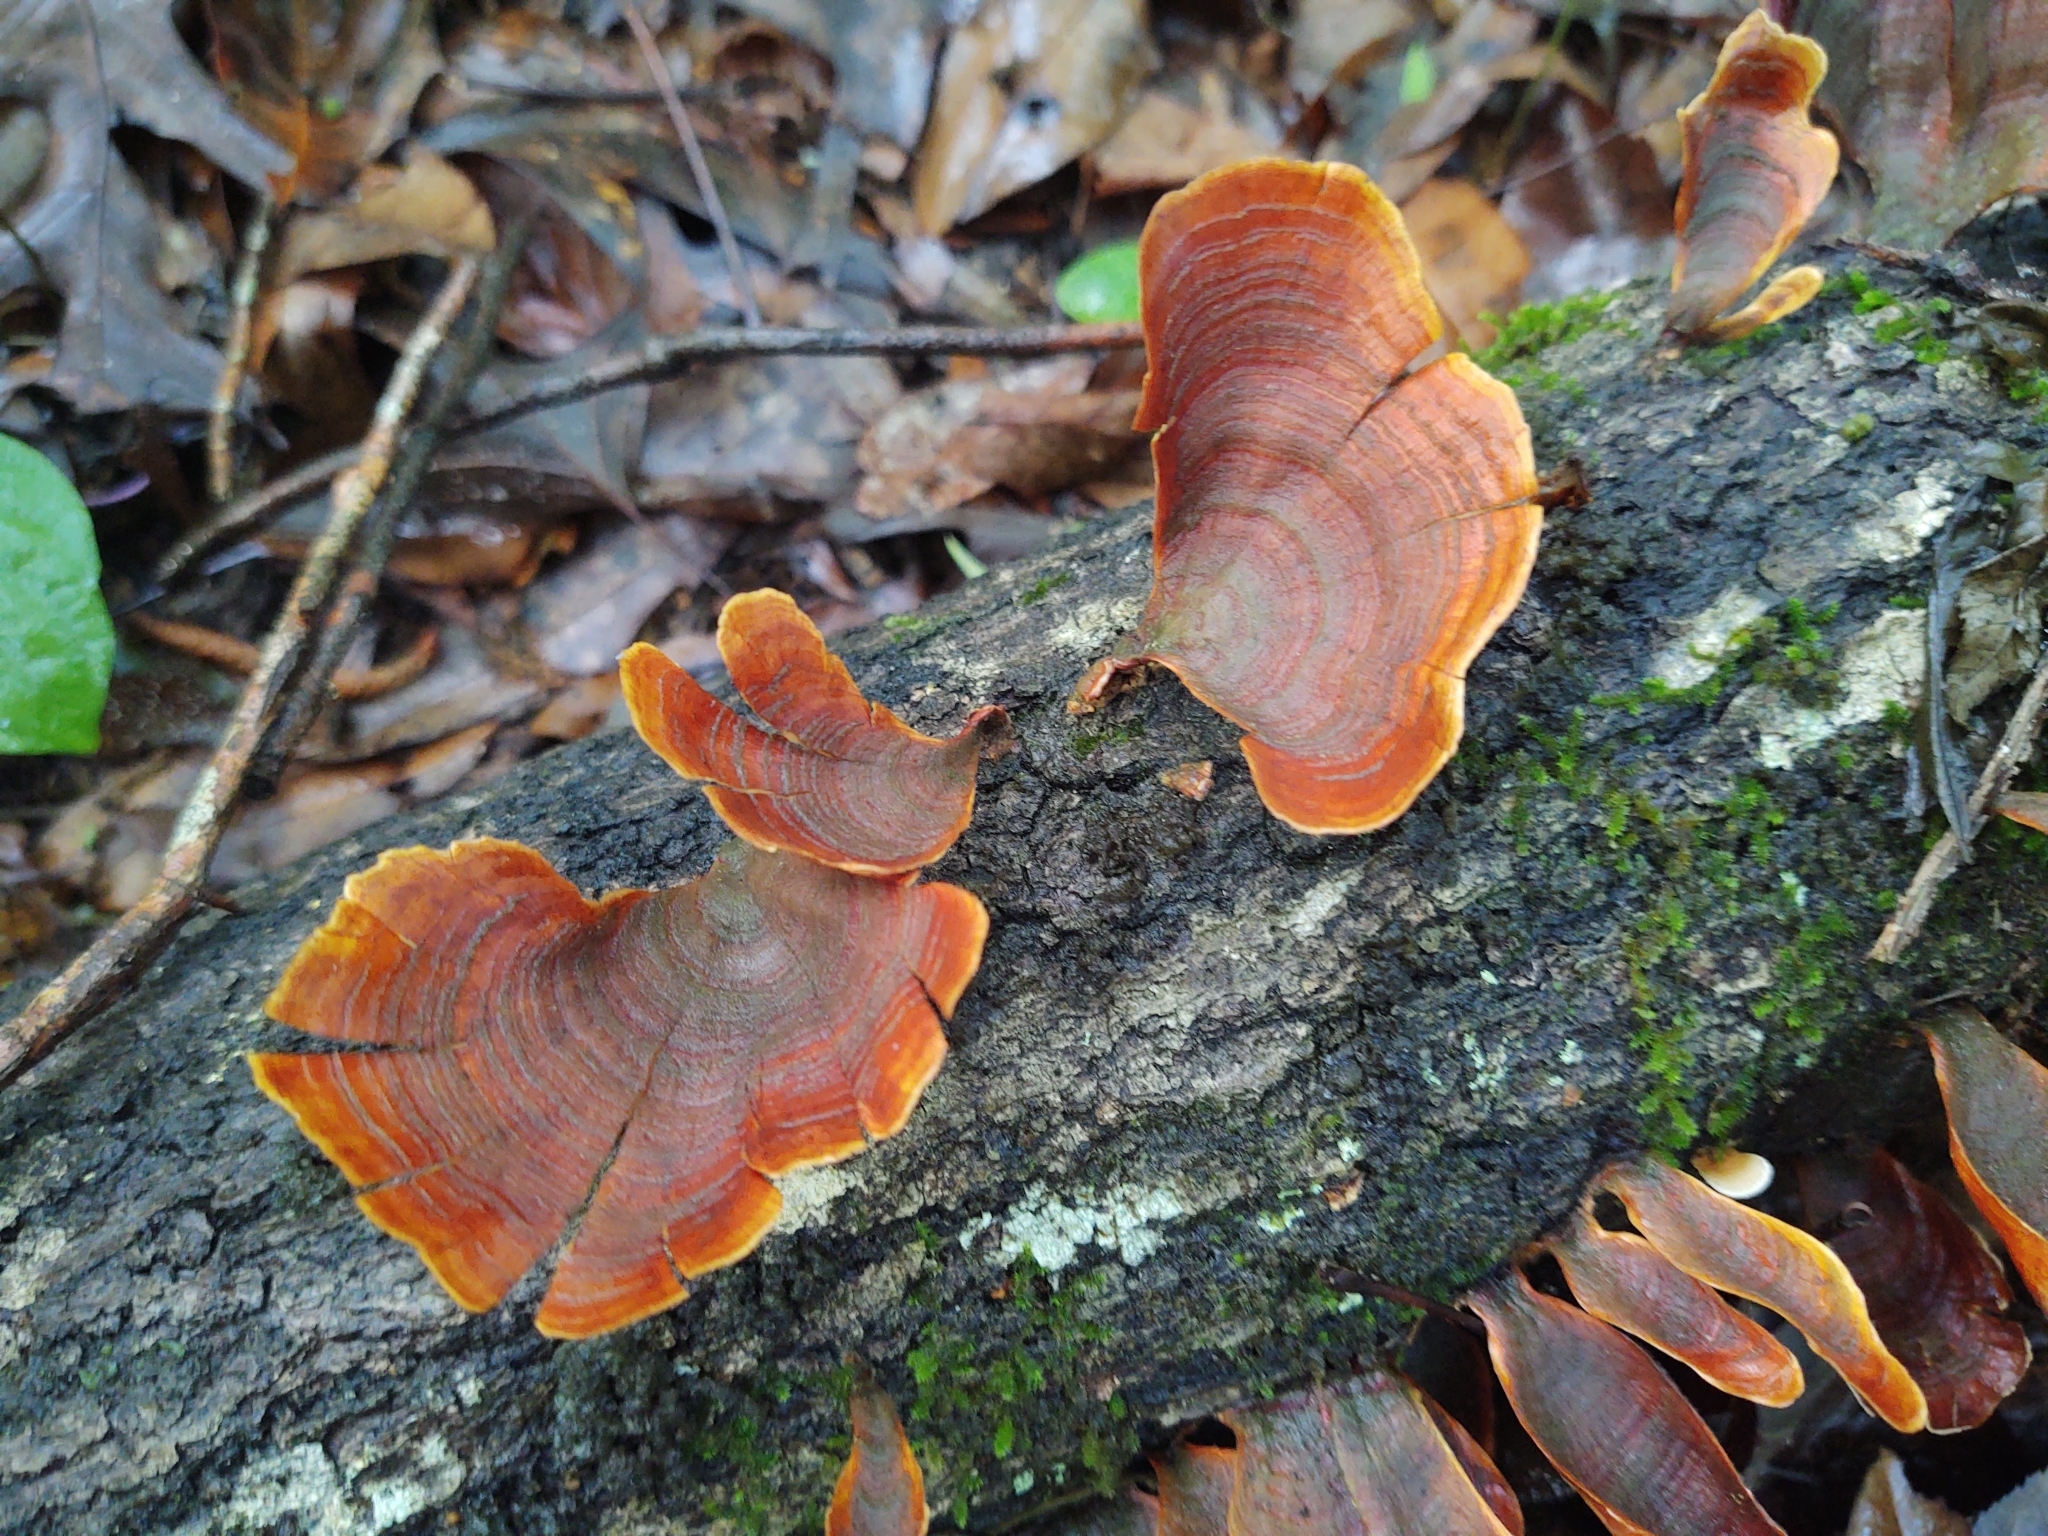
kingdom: Fungi
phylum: Basidiomycota
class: Agaricomycetes
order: Russulales
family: Stereaceae
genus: Stereum
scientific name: Stereum lobatum
